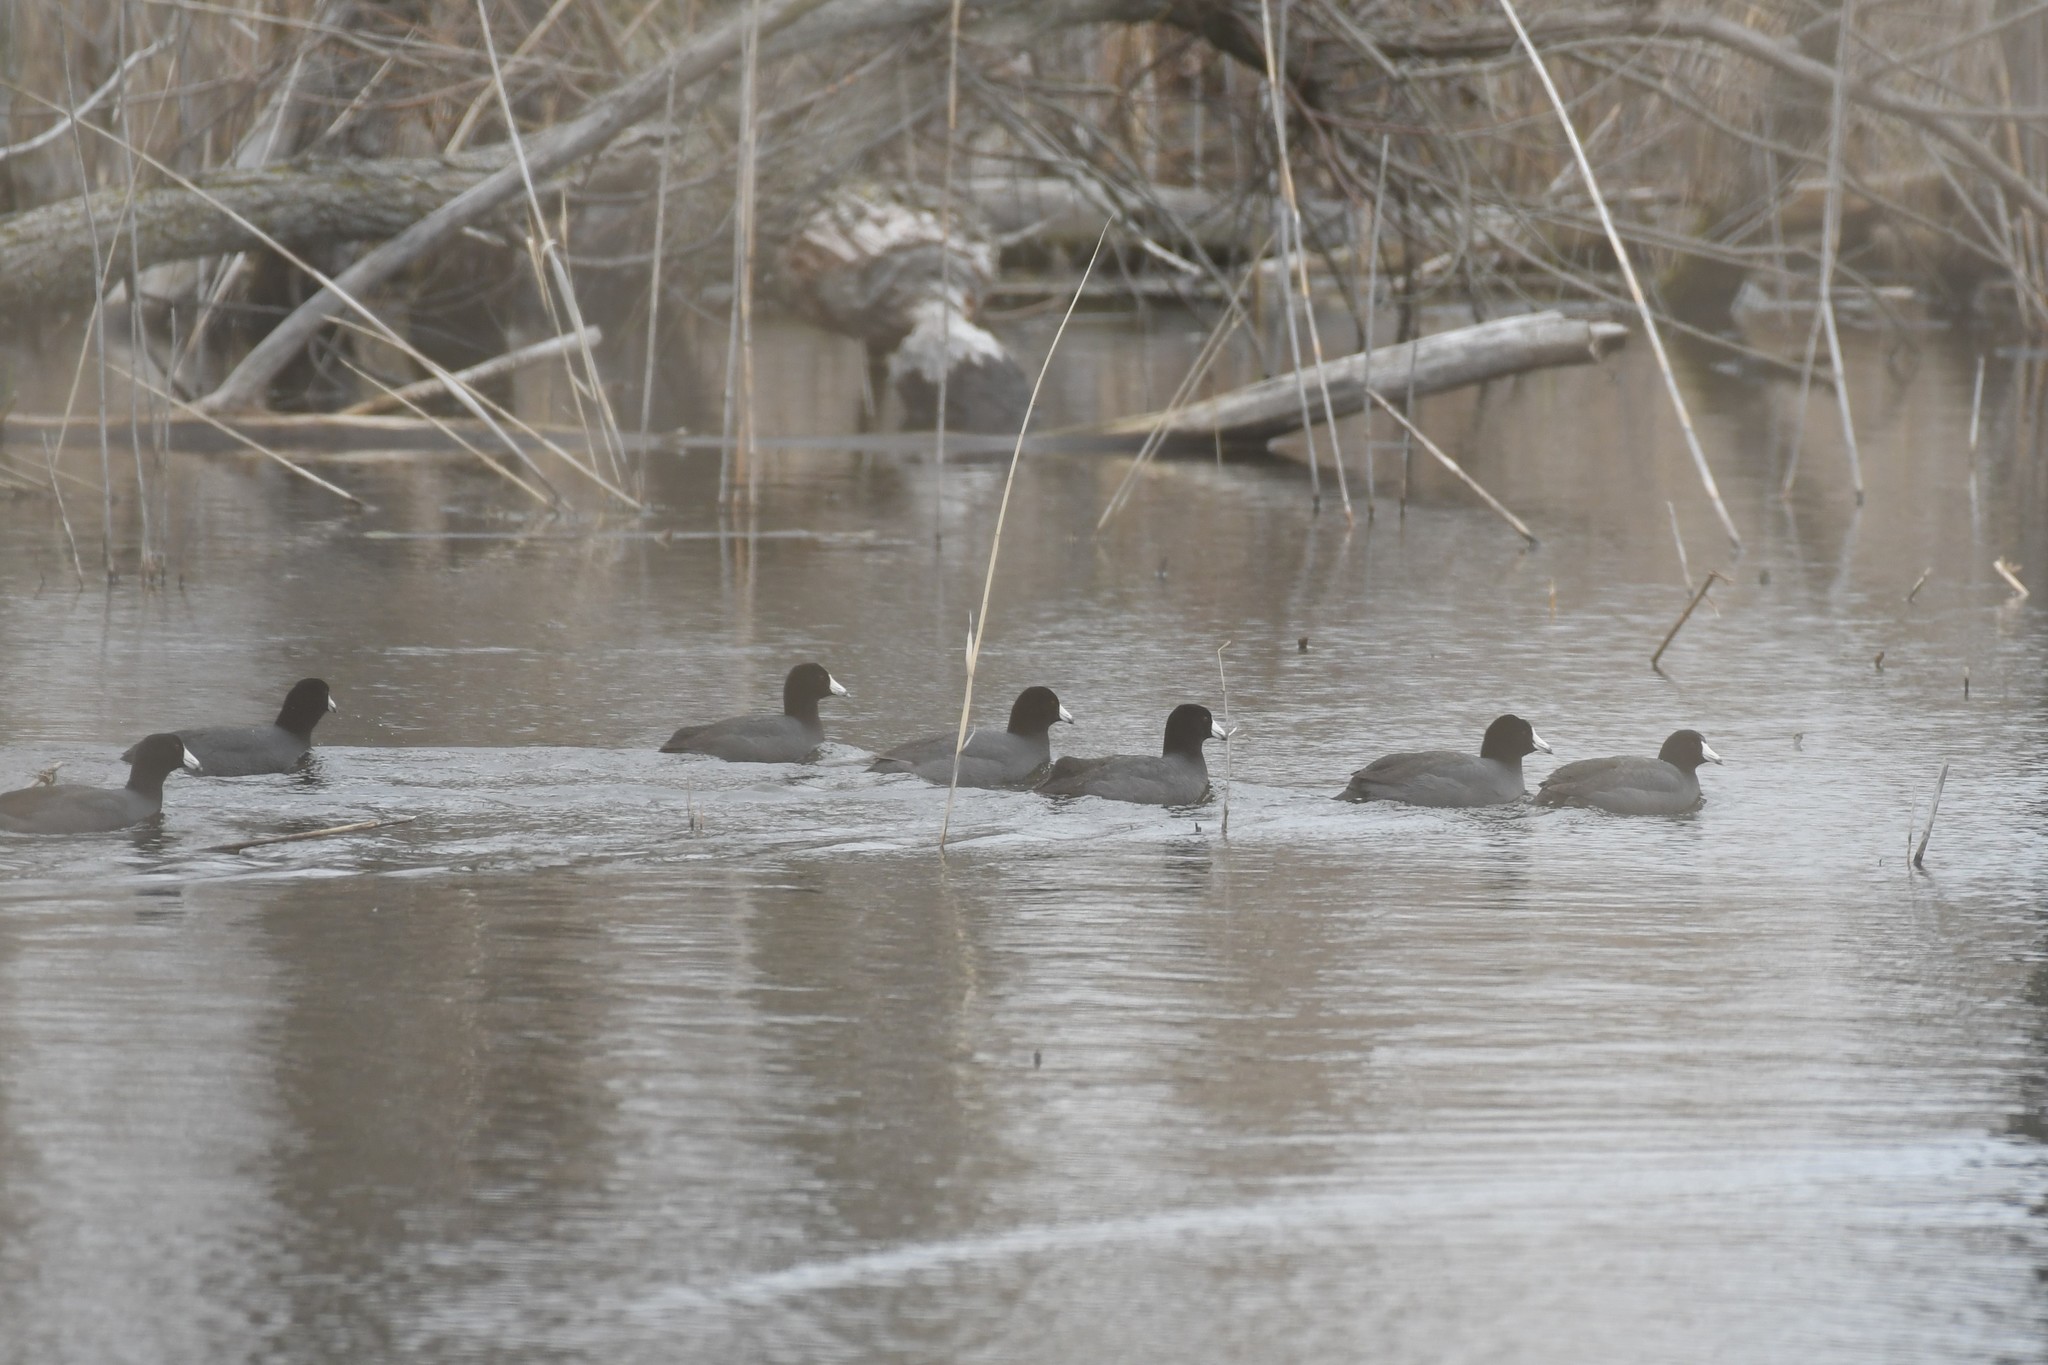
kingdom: Animalia
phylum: Chordata
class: Aves
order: Gruiformes
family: Rallidae
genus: Fulica
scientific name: Fulica americana
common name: American coot
